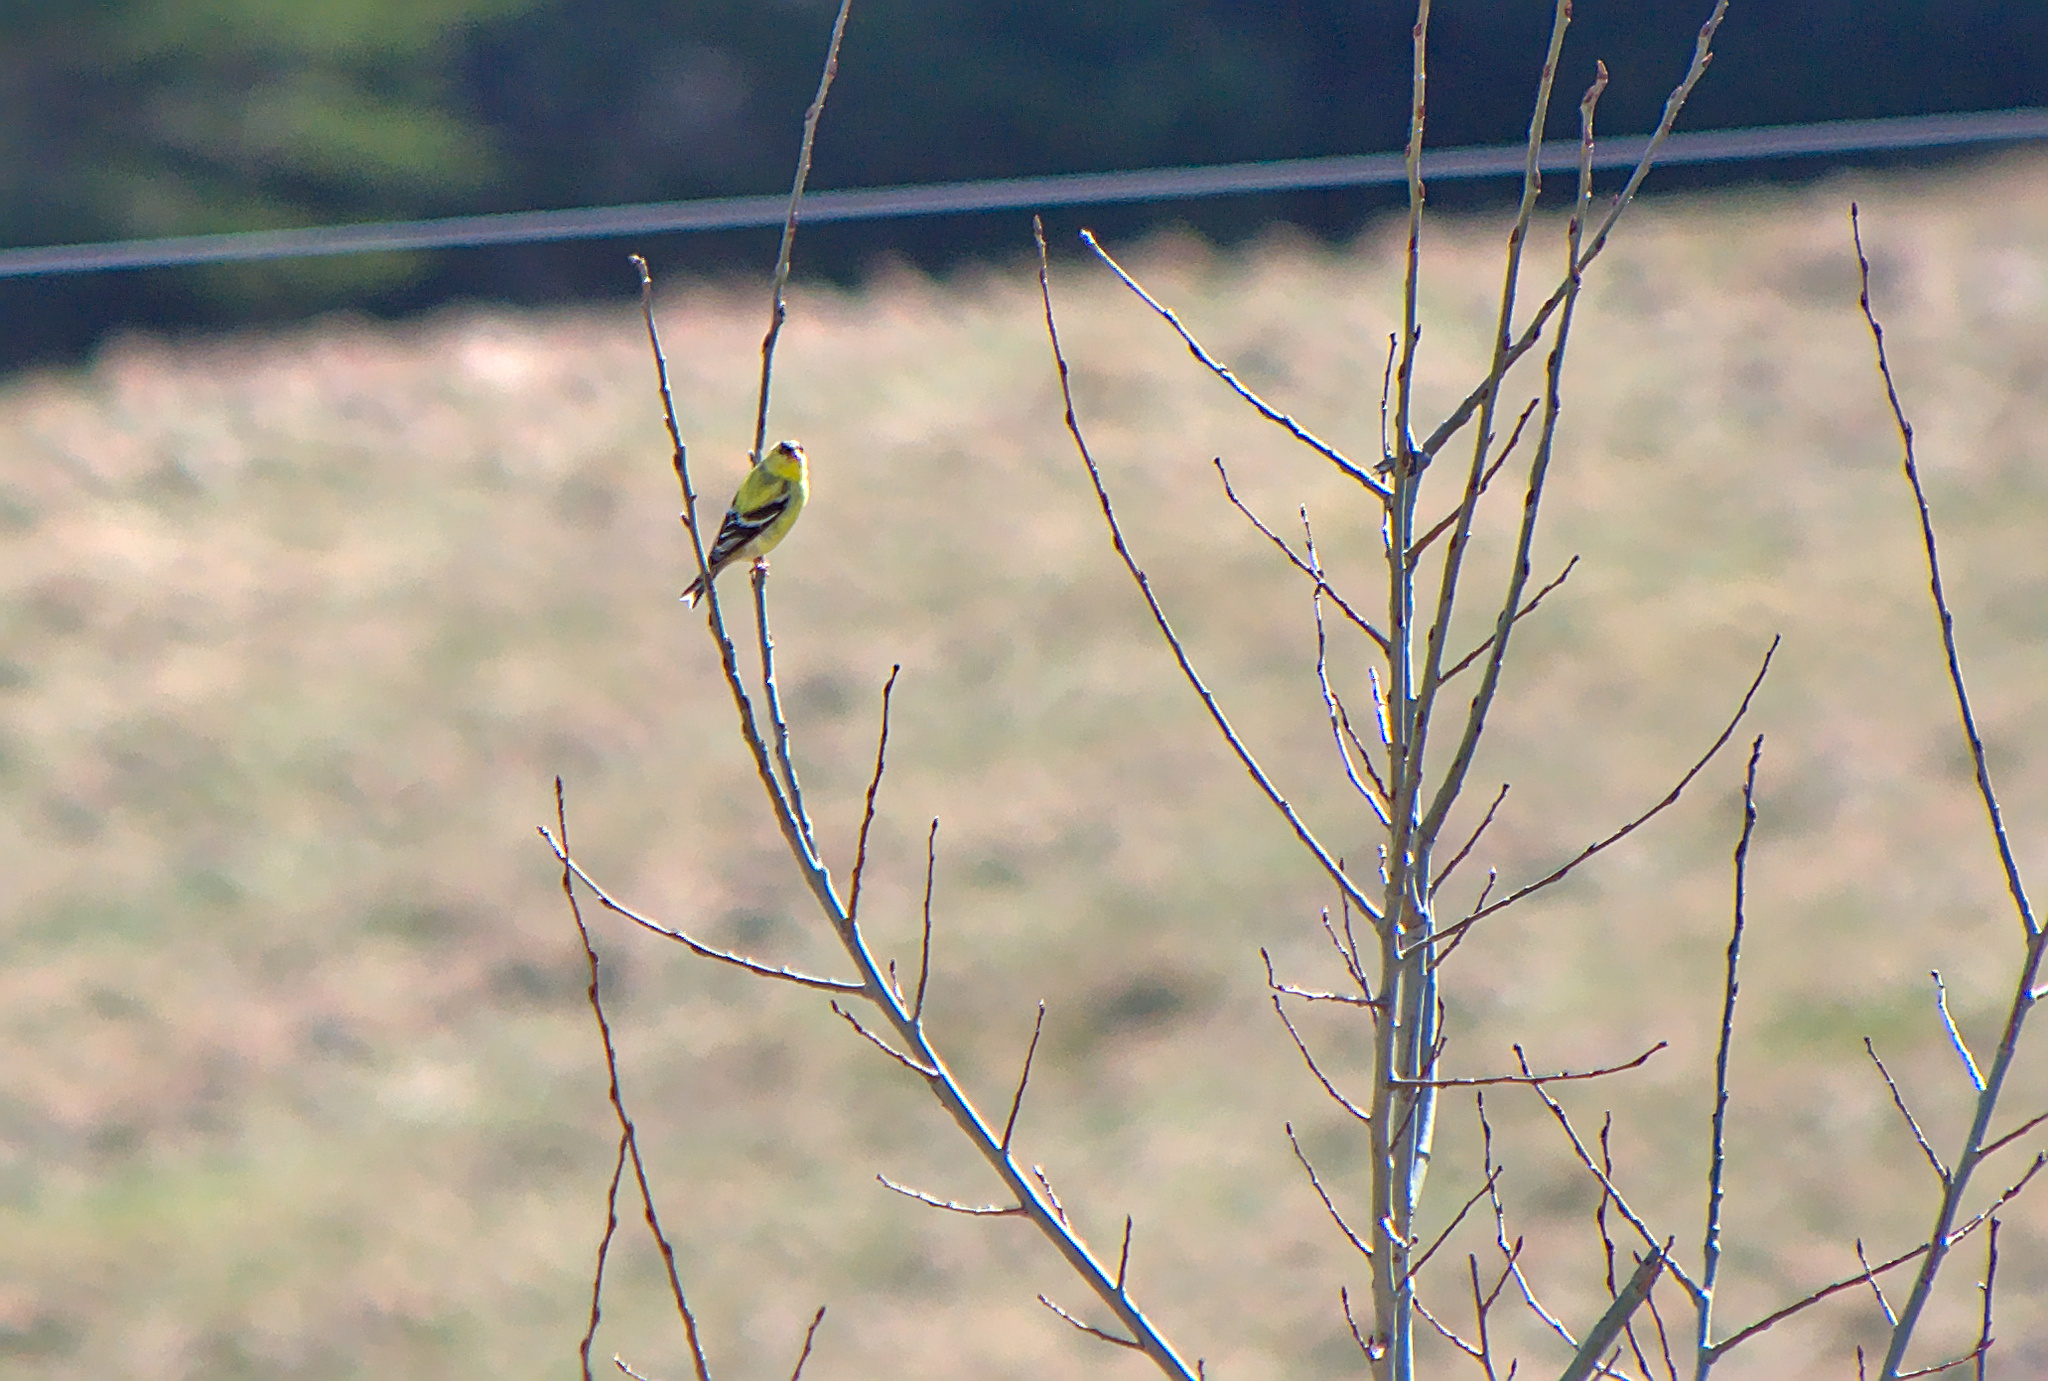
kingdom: Animalia
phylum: Chordata
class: Aves
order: Passeriformes
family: Fringillidae
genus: Spinus
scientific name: Spinus tristis
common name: American goldfinch
